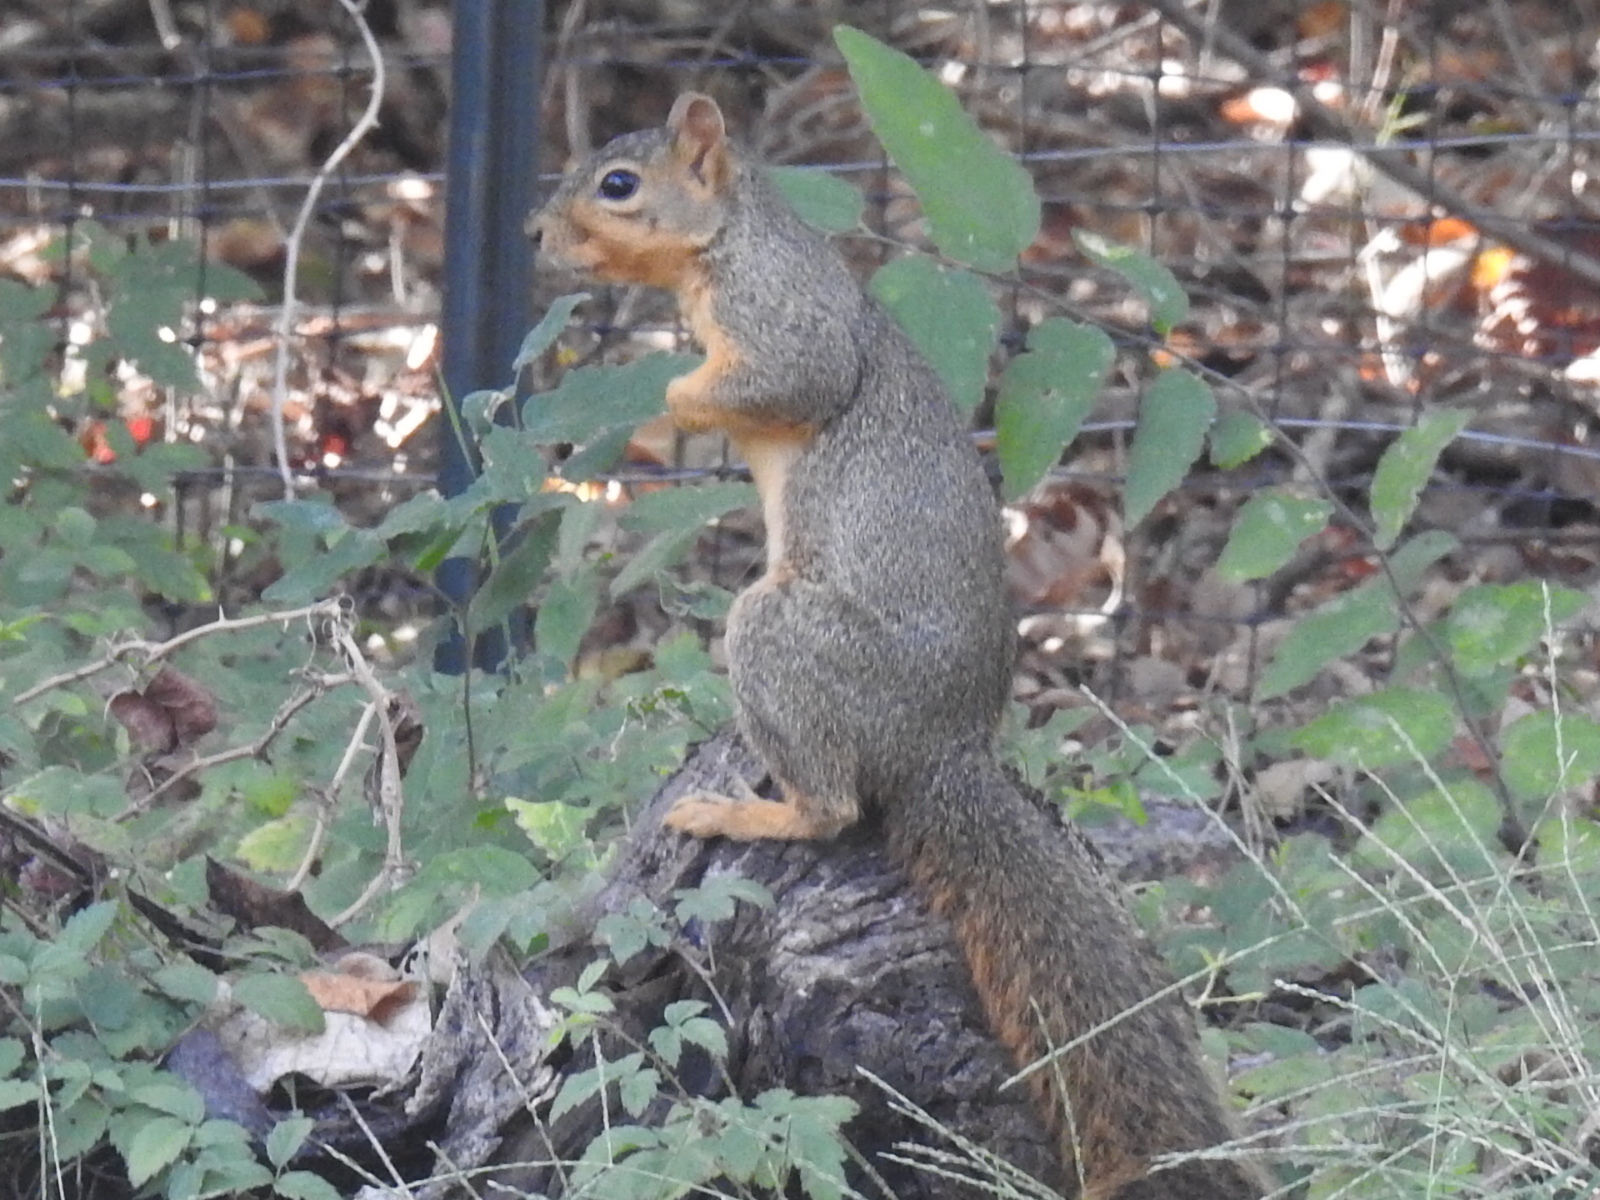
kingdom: Animalia
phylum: Chordata
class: Mammalia
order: Rodentia
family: Sciuridae
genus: Sciurus
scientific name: Sciurus niger
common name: Fox squirrel
